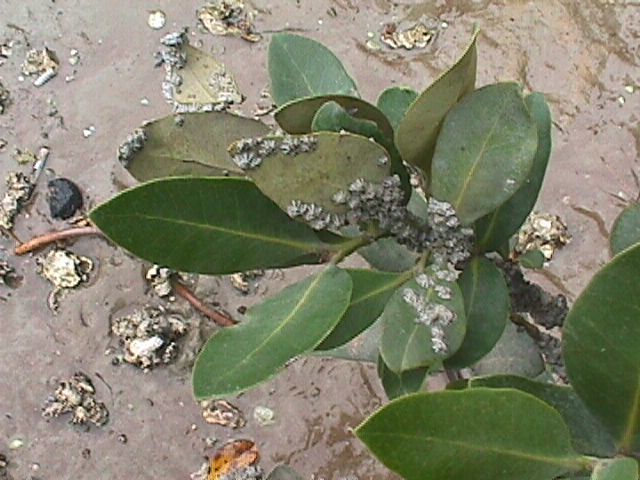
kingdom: Animalia
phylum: Arthropoda
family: Elminiidae
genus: Austrominius
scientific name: Austrominius modestus
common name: Australasian barnacle
